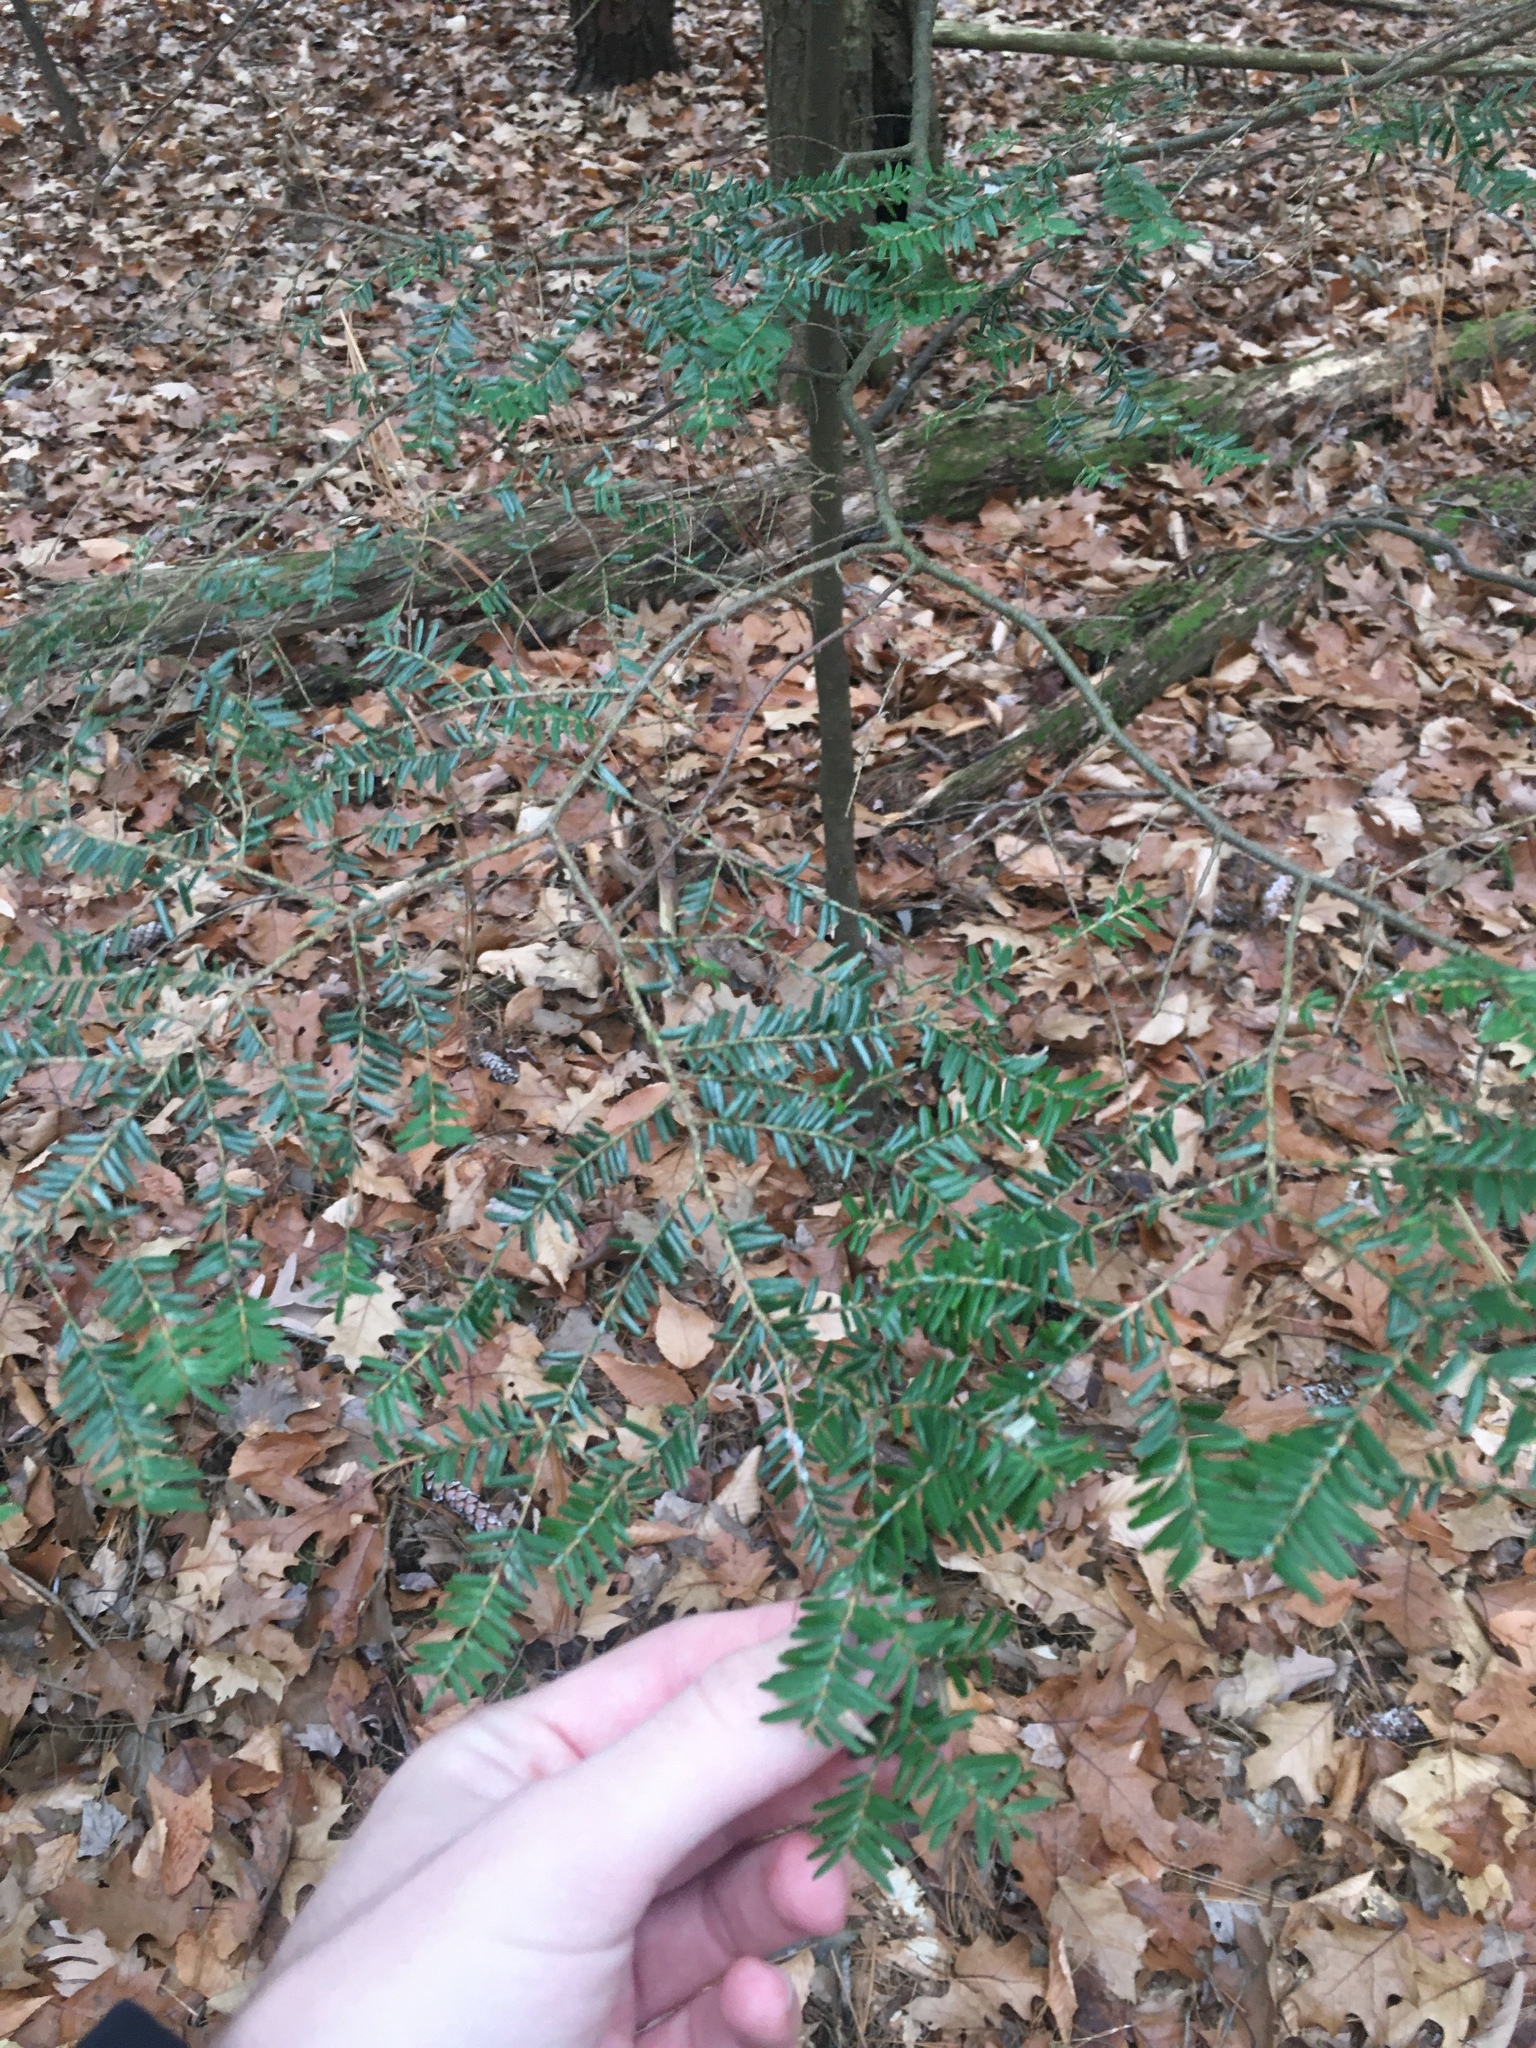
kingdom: Plantae
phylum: Tracheophyta
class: Pinopsida
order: Pinales
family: Pinaceae
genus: Tsuga
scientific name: Tsuga canadensis
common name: Eastern hemlock
